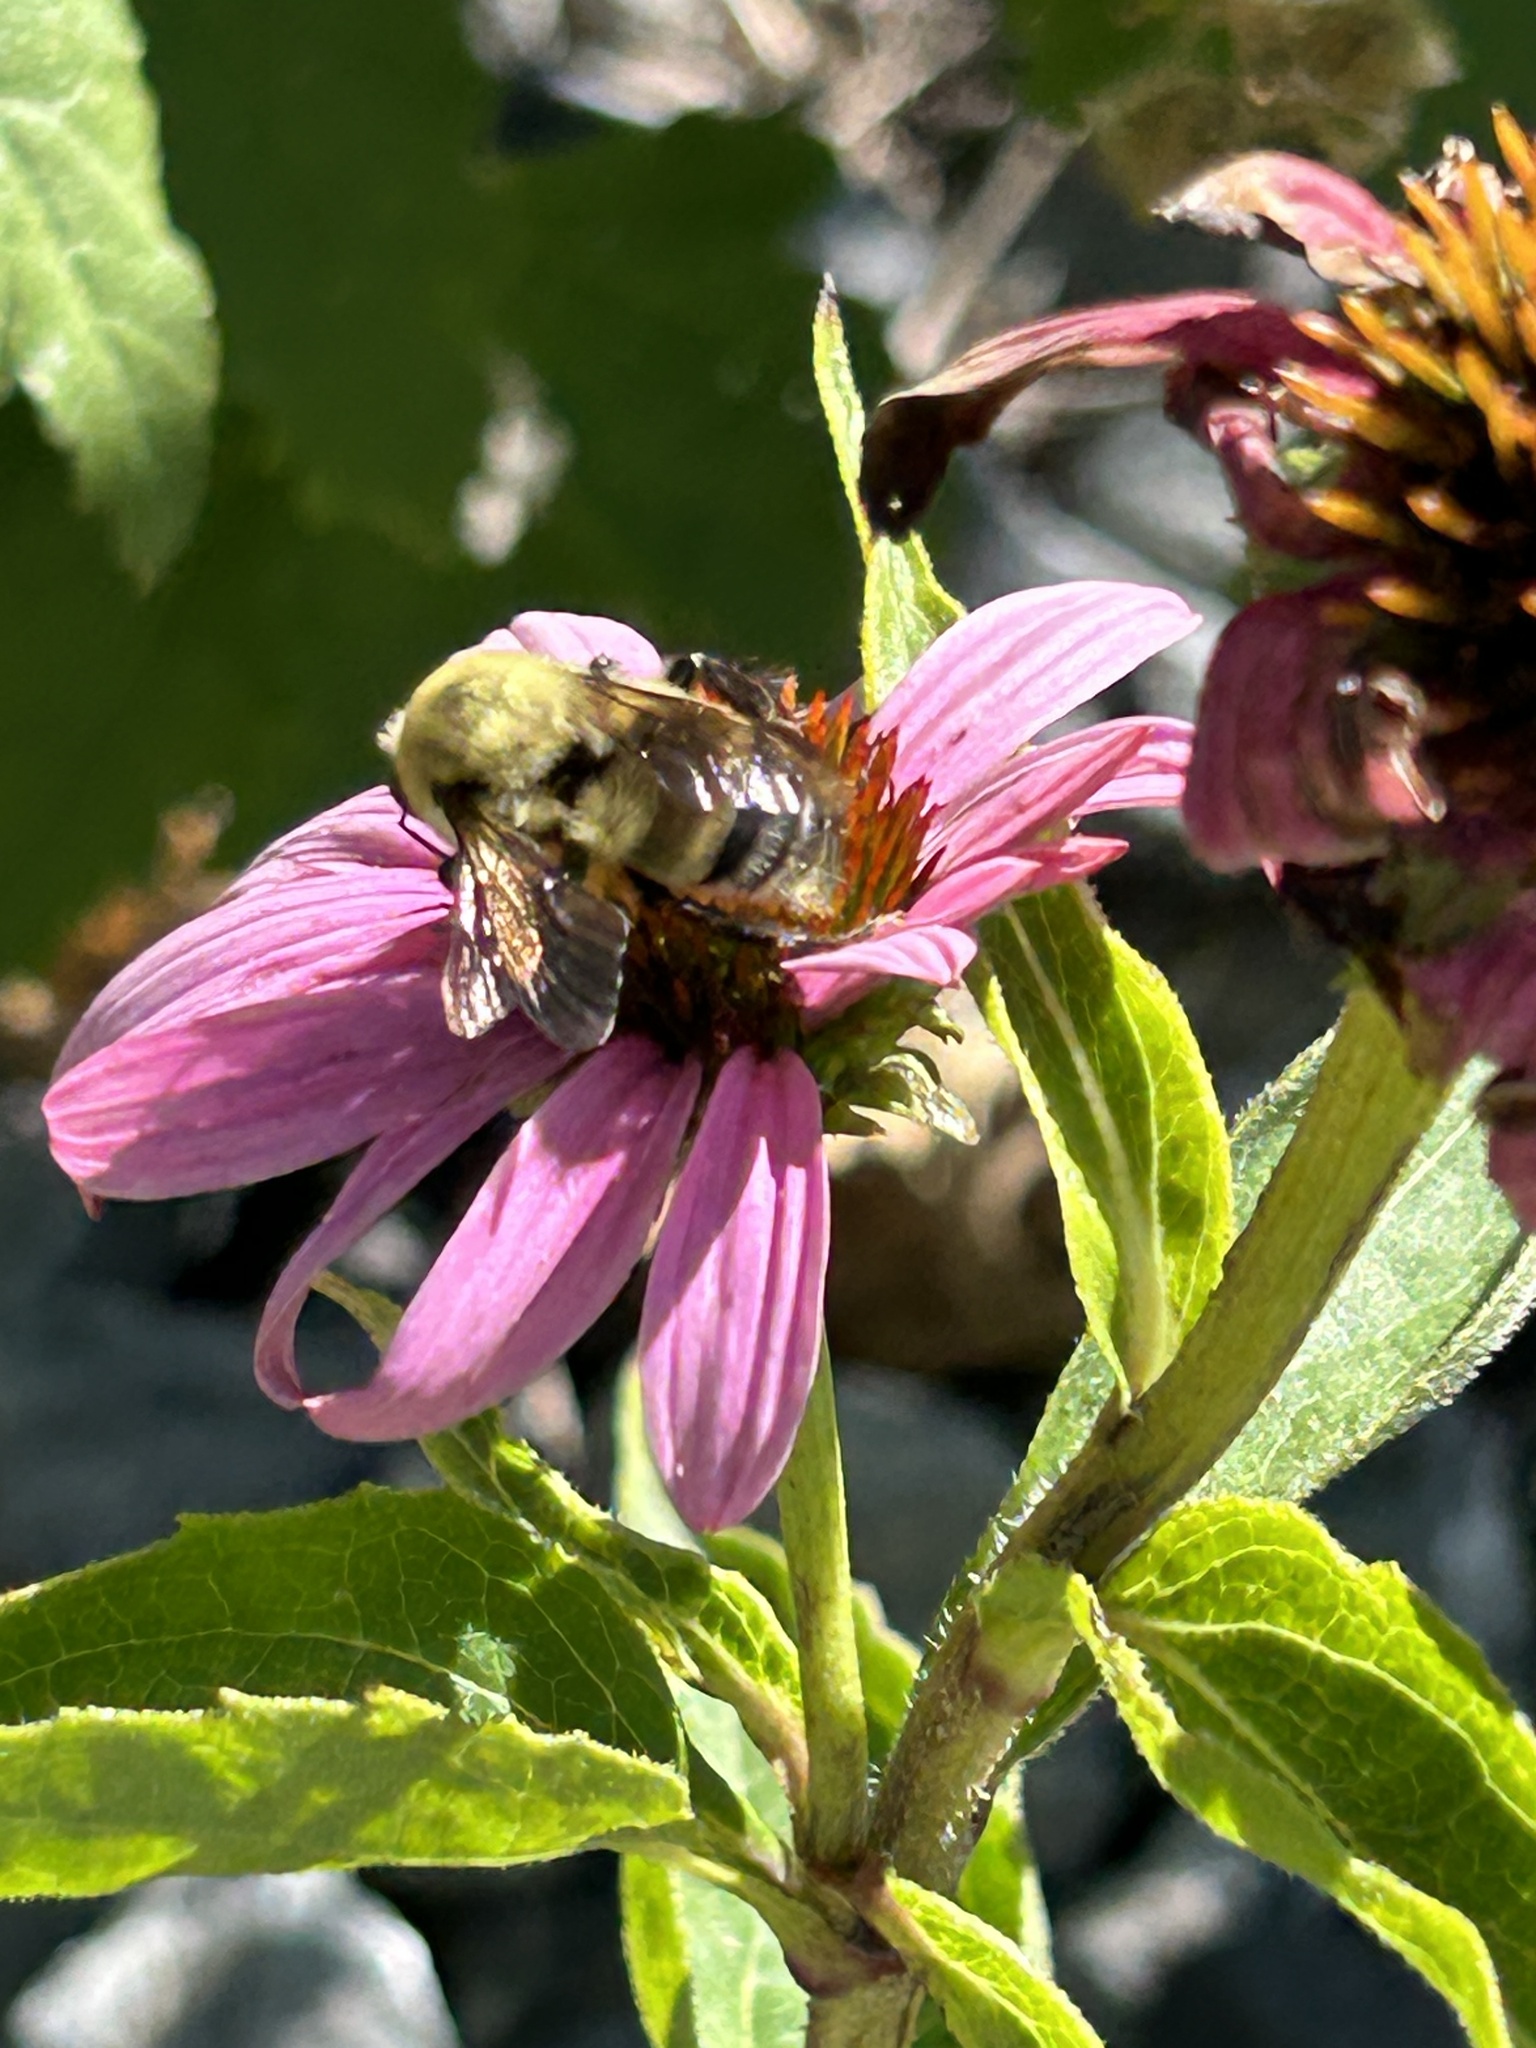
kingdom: Animalia
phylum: Arthropoda
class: Insecta
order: Hymenoptera
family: Apidae
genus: Bombus
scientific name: Bombus griseocollis
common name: Brown-belted bumble bee
